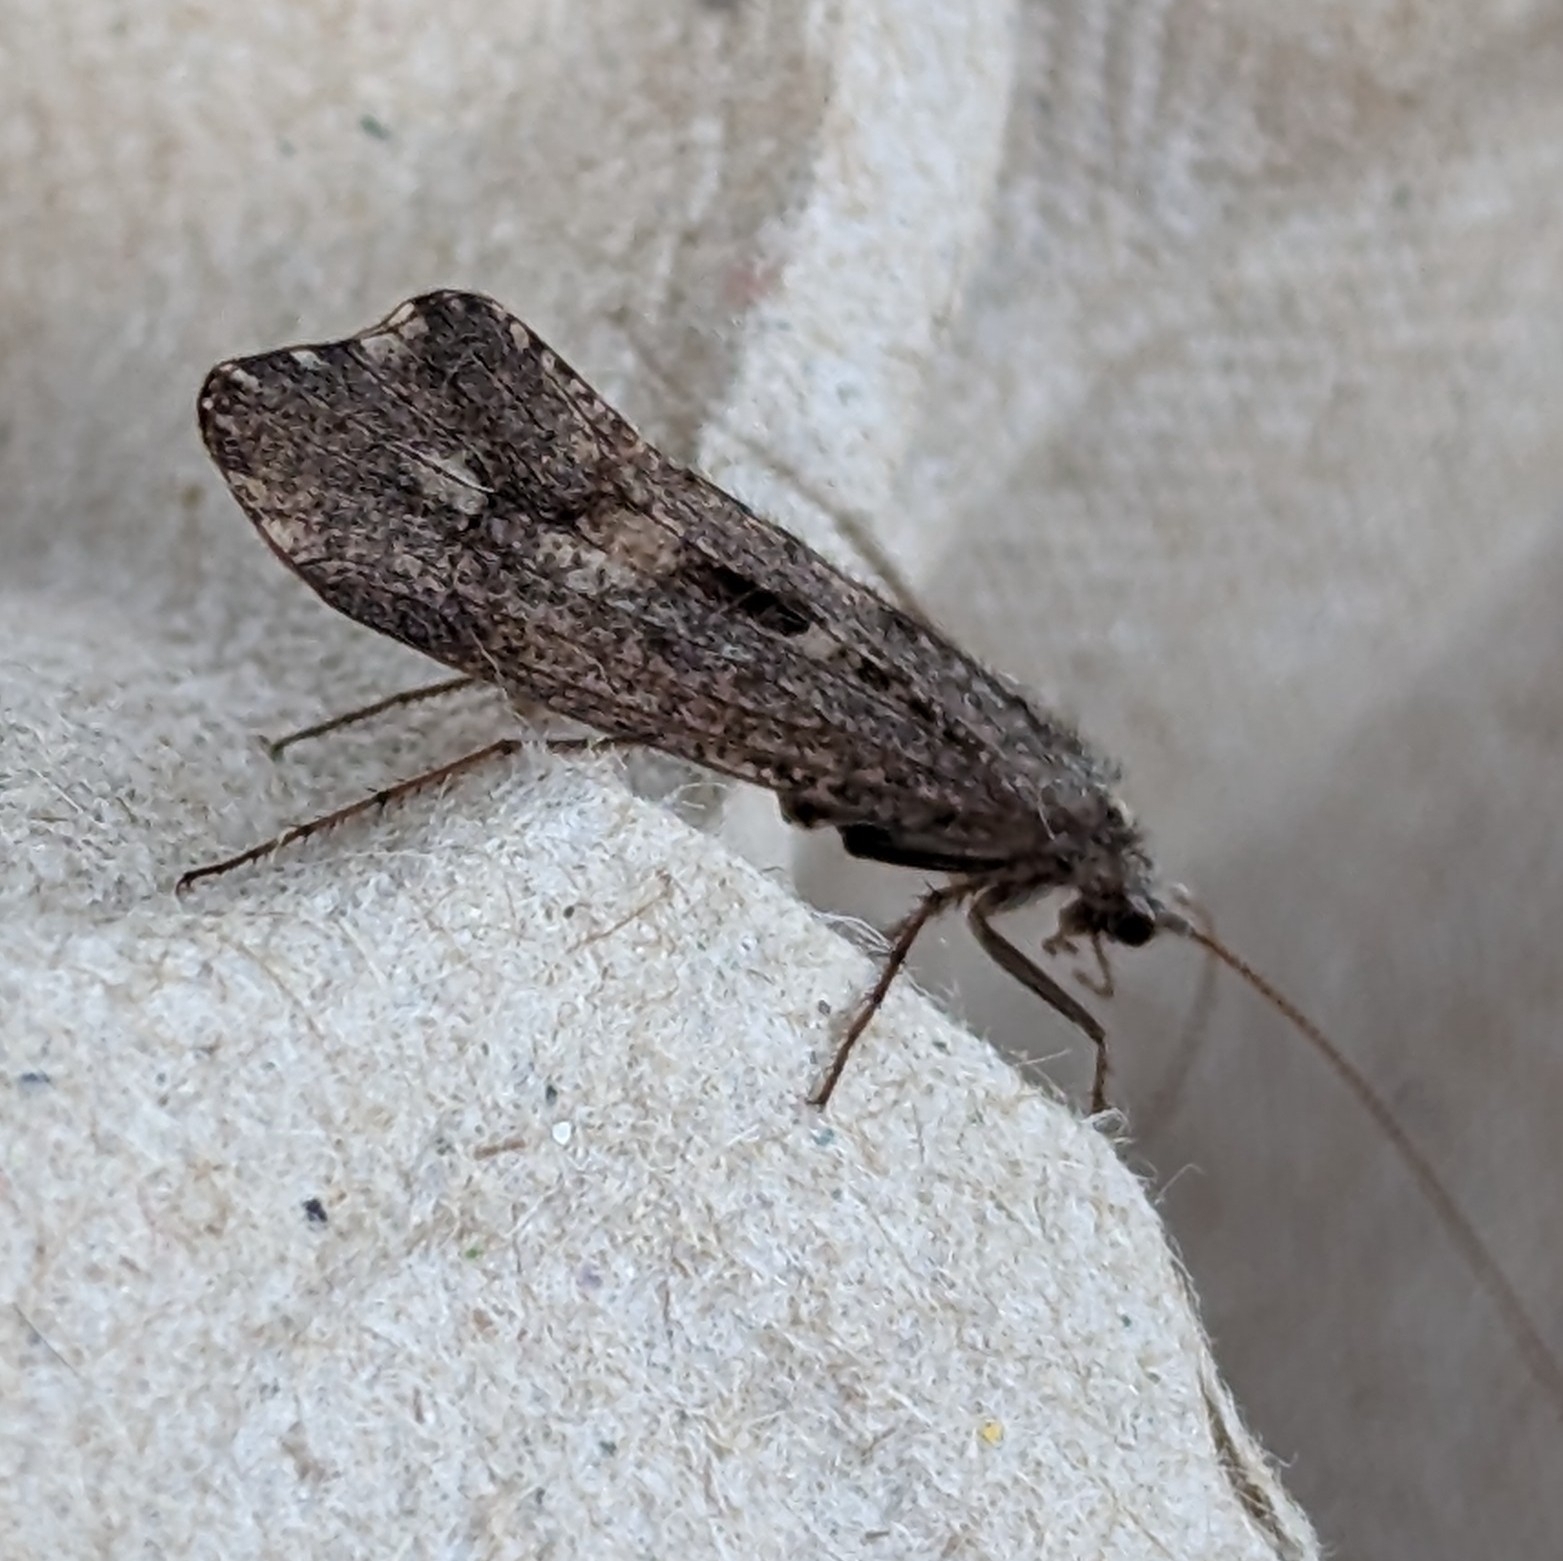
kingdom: Animalia
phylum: Arthropoda
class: Insecta
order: Trichoptera
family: Limnephilidae
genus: Glyphopsyche
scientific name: Glyphopsyche irrorata
